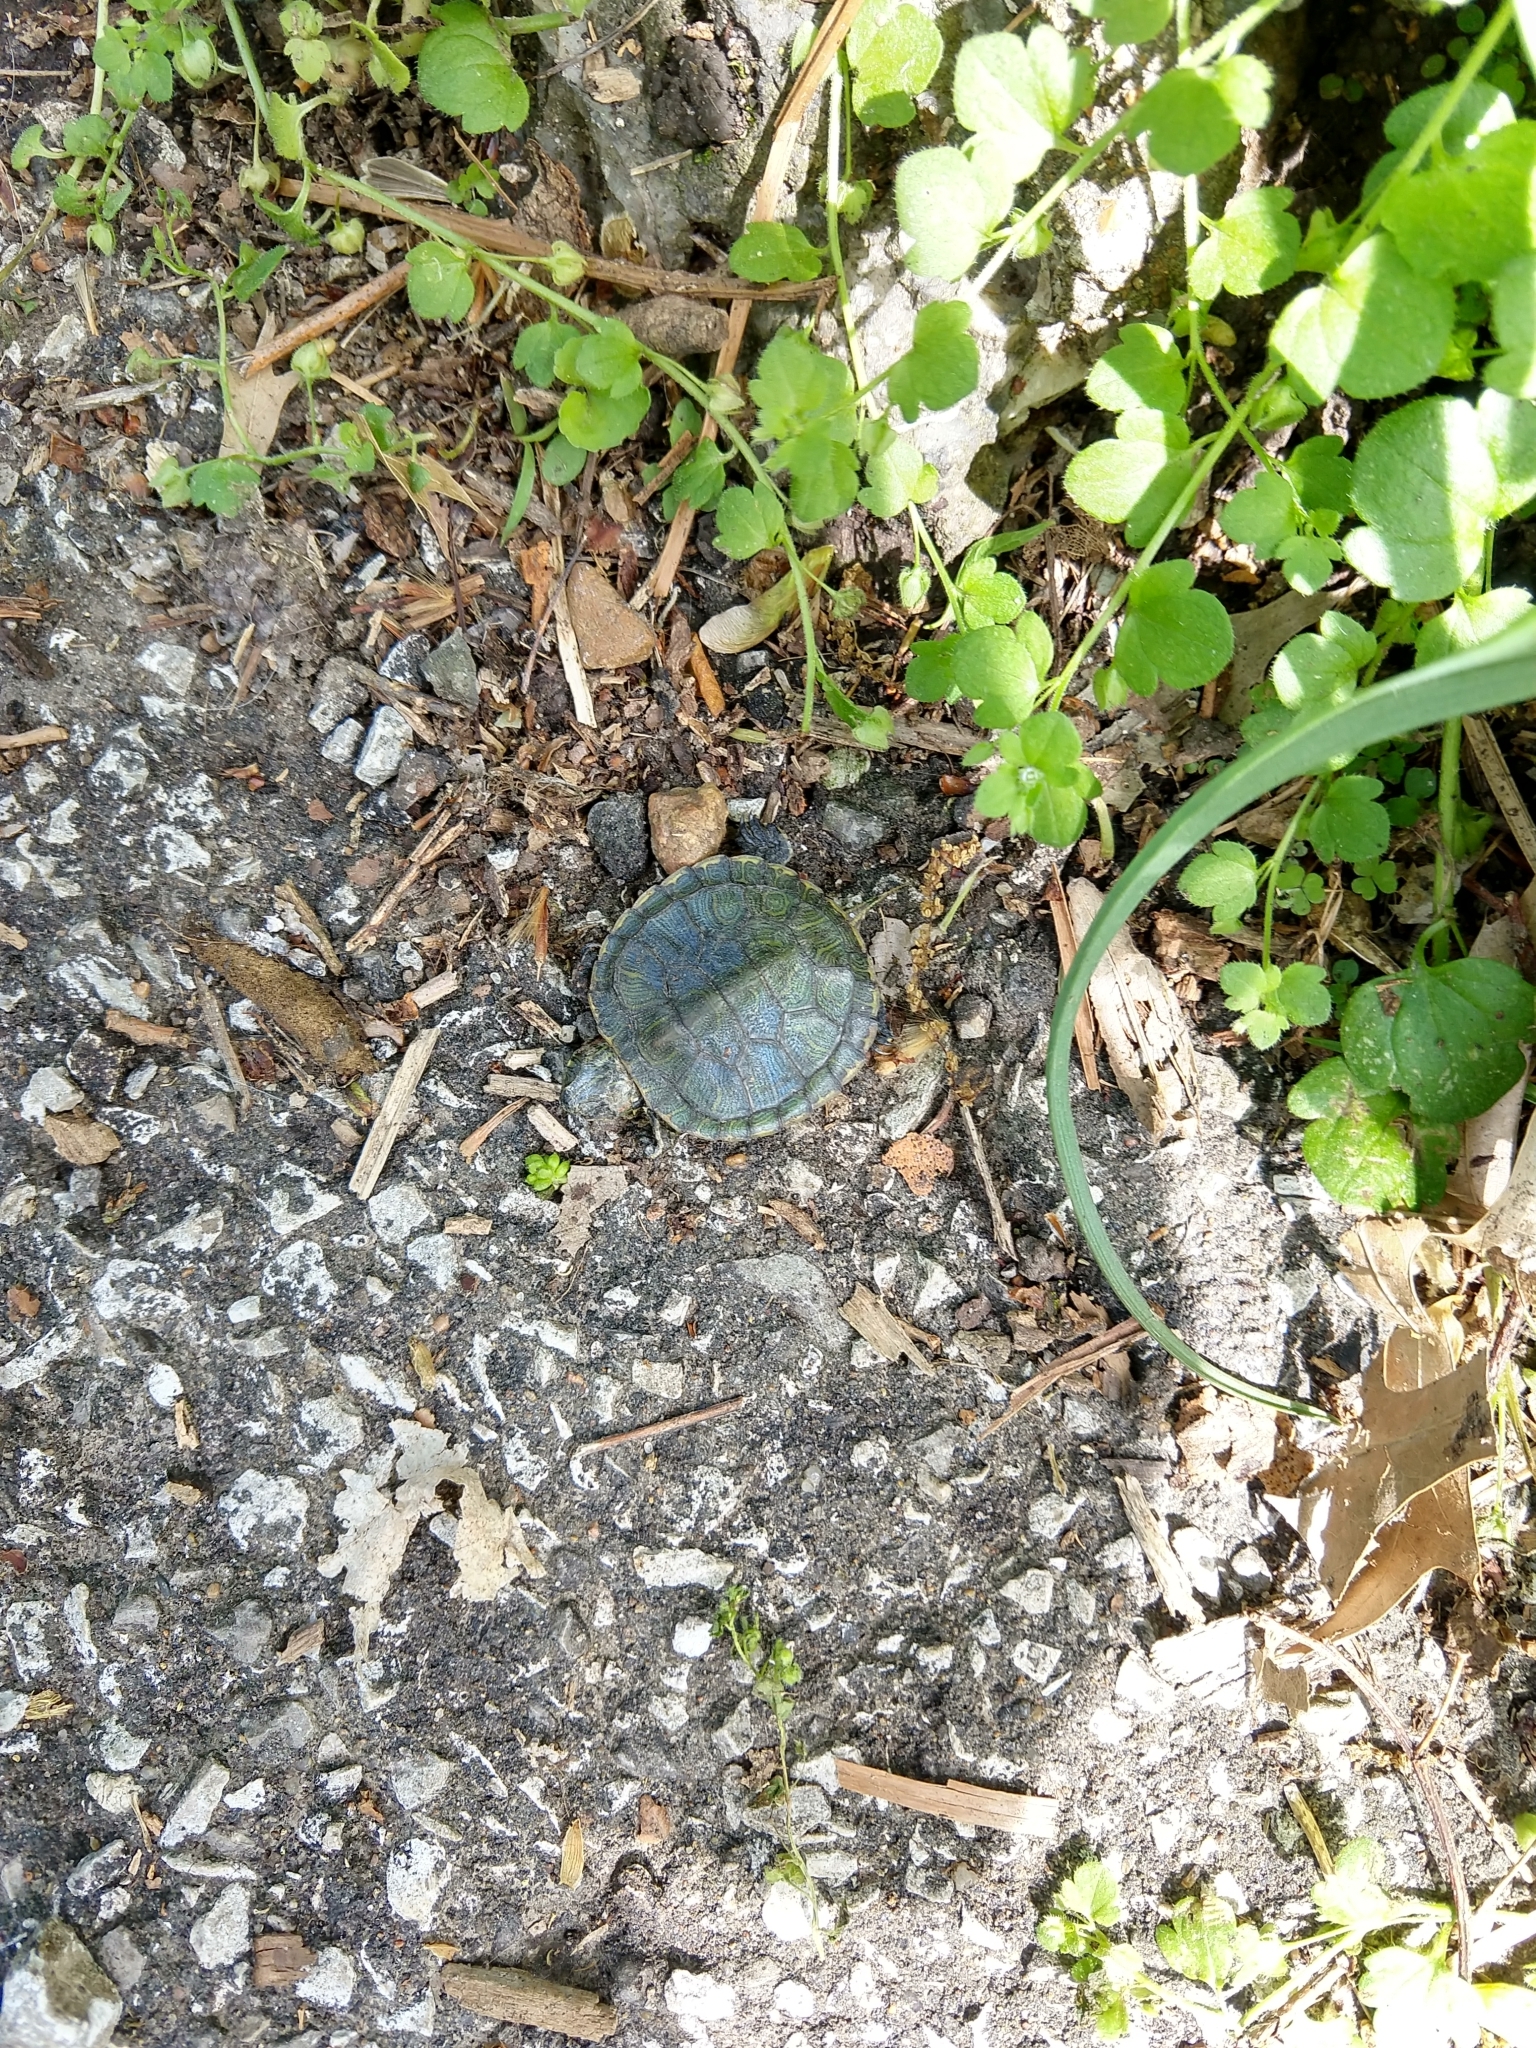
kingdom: Animalia
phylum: Chordata
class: Testudines
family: Emydidae
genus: Trachemys
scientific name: Trachemys scripta
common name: Slider
